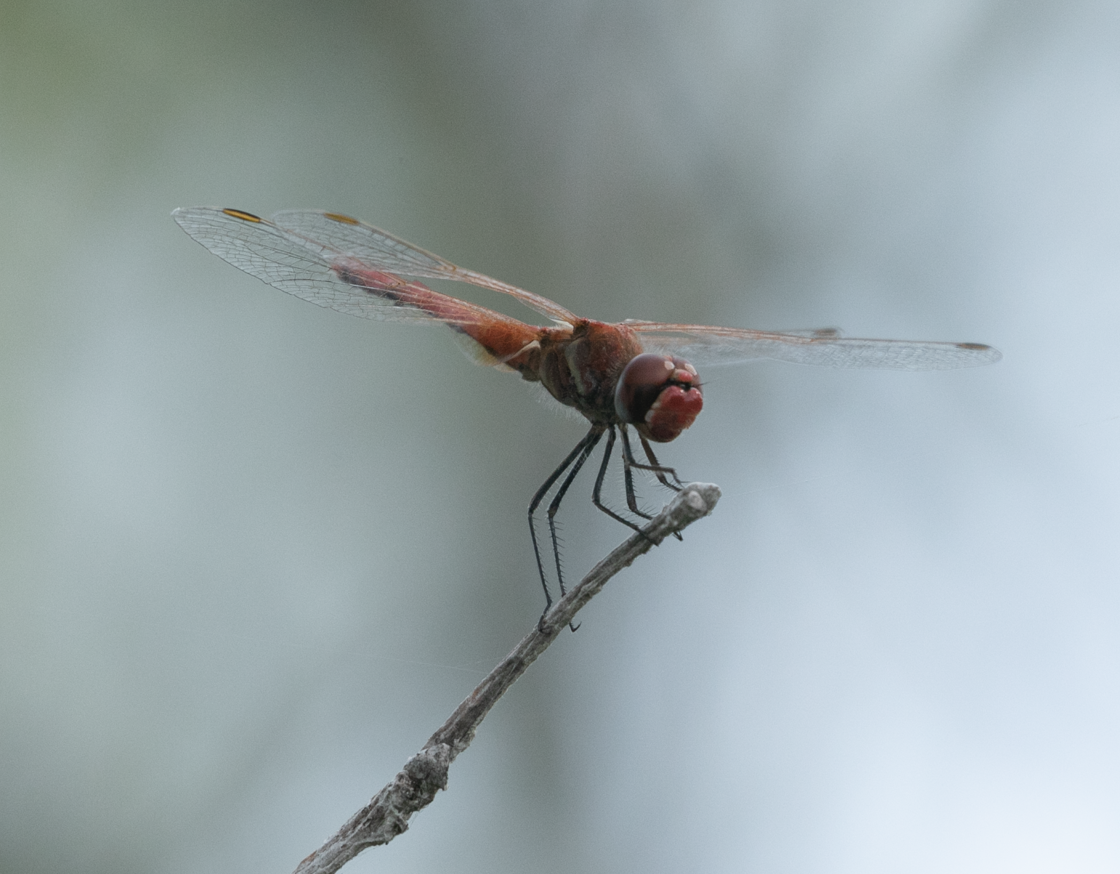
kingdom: Animalia
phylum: Arthropoda
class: Insecta
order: Odonata
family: Libellulidae
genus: Sympetrum
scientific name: Sympetrum fonscolombii
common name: Red-veined darter
